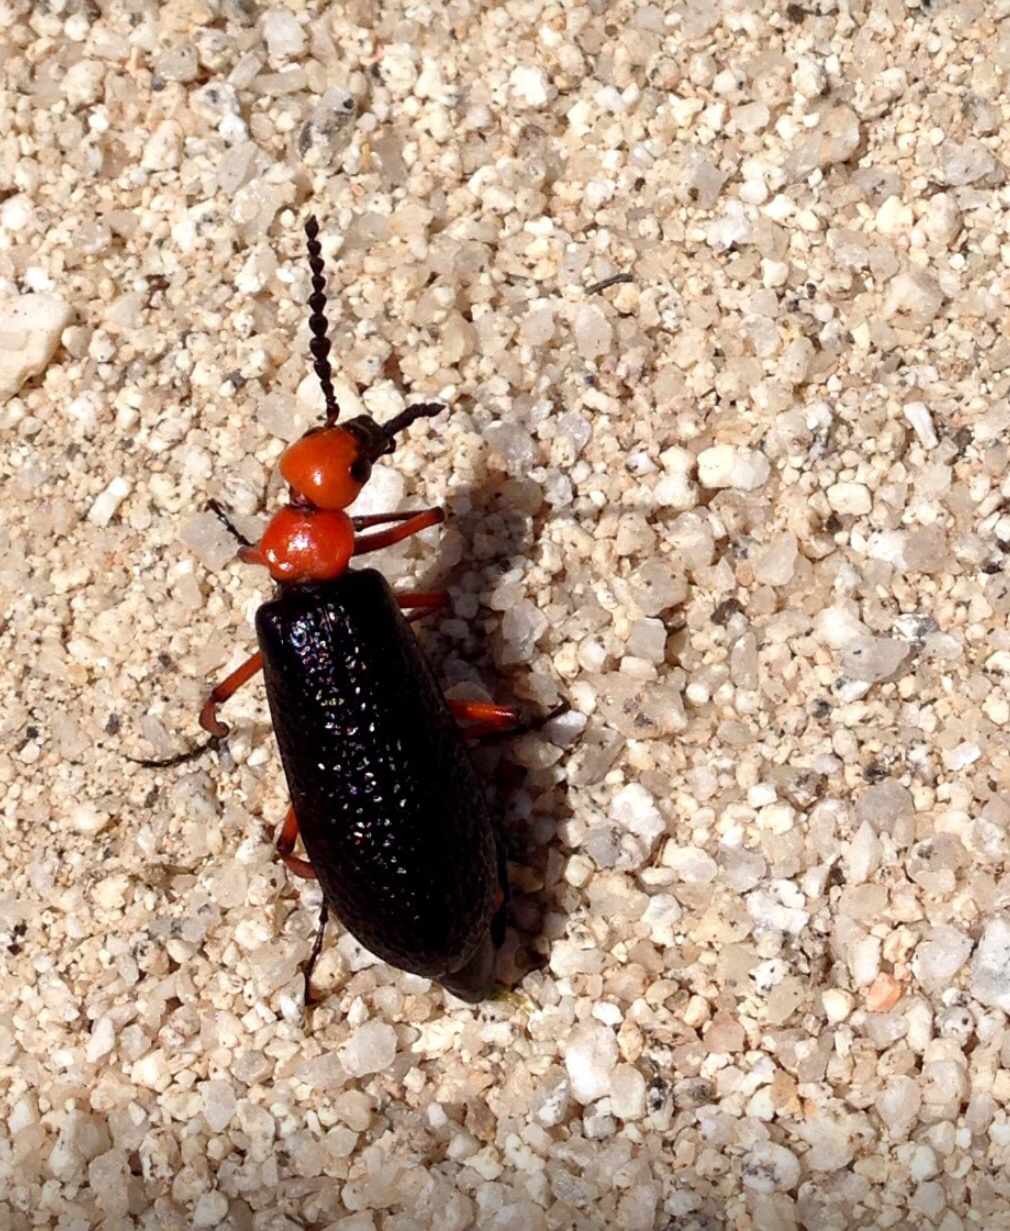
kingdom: Animalia
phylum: Arthropoda
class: Insecta
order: Coleoptera
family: Meloidae
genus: Lytta
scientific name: Lytta magister
